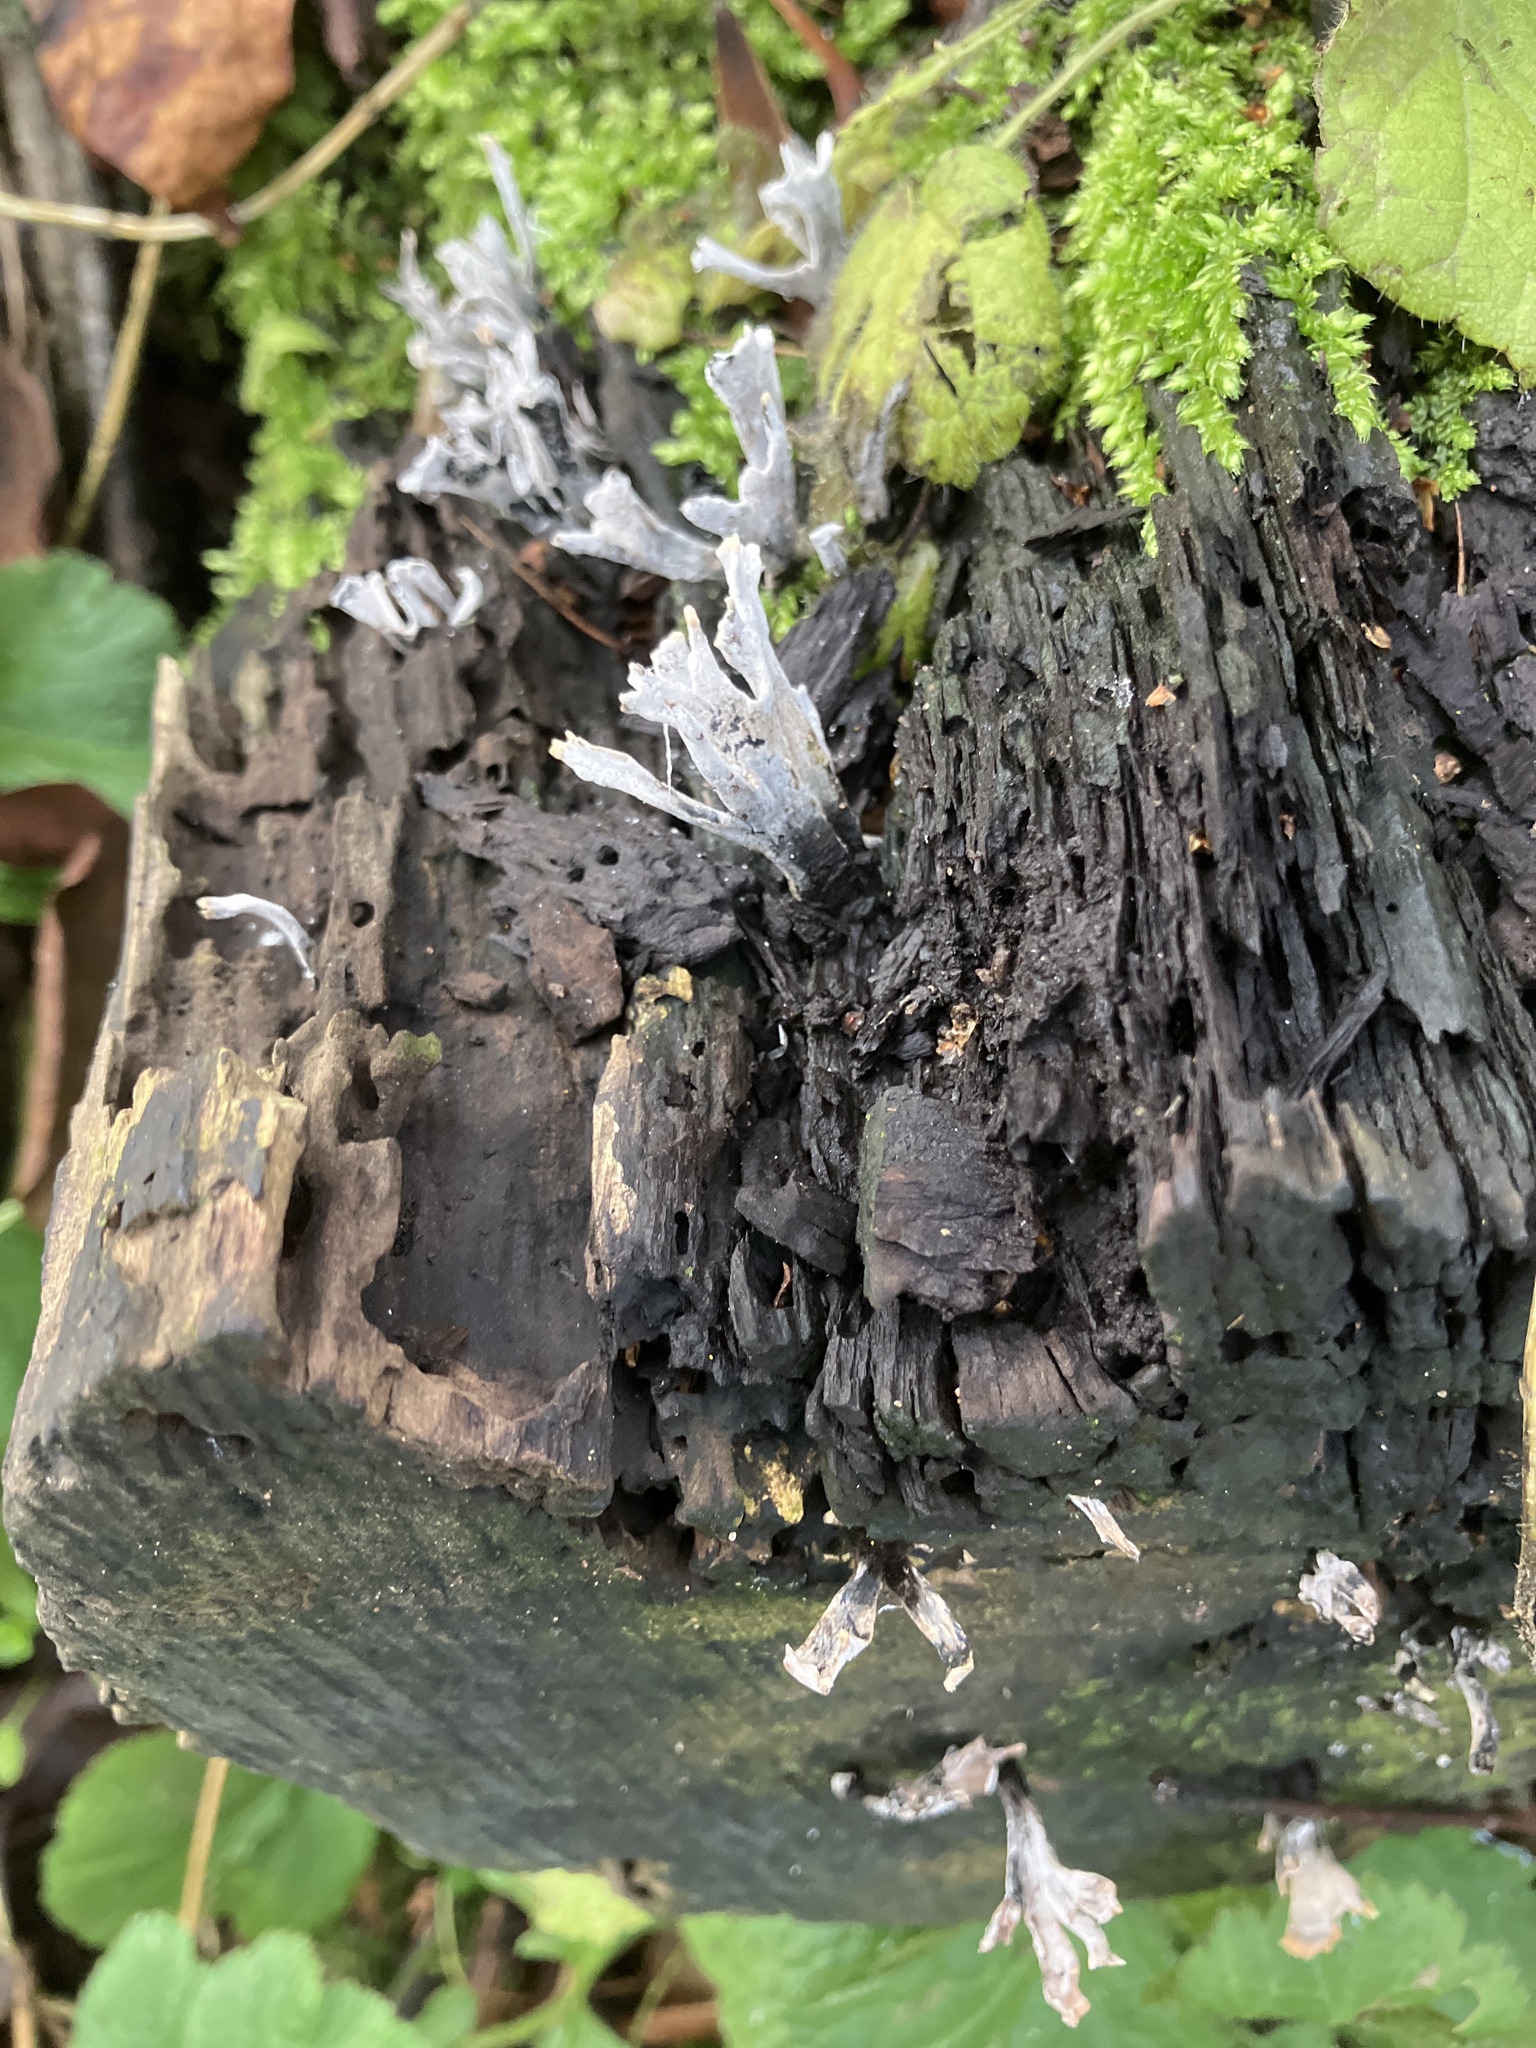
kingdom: Fungi
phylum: Ascomycota
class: Sordariomycetes
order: Xylariales
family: Xylariaceae
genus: Xylaria
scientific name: Xylaria hypoxylon
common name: Candle-snuff fungus
